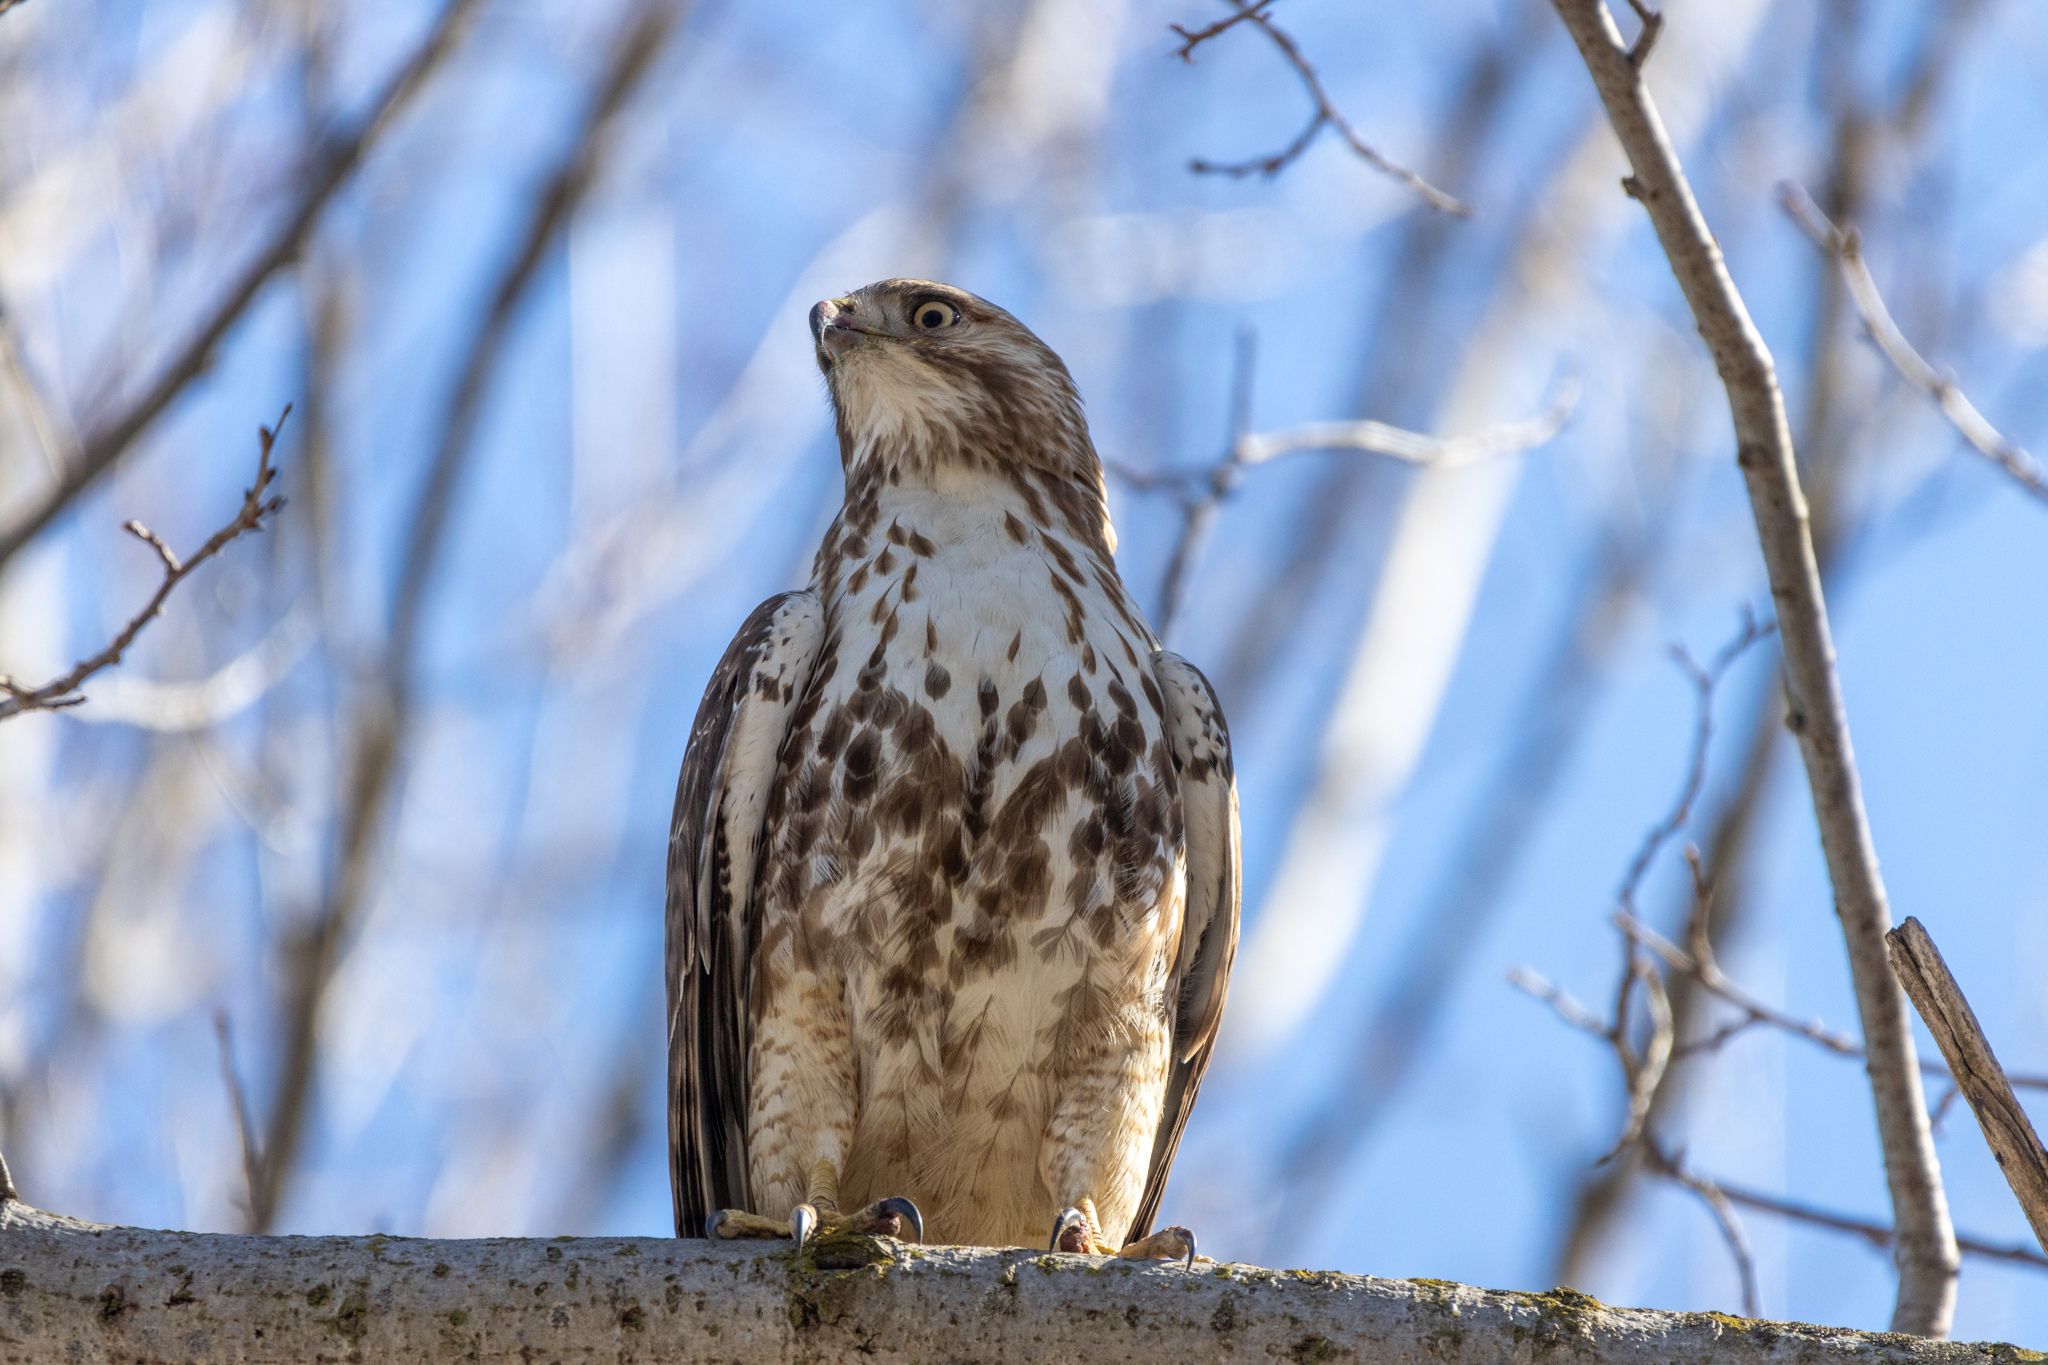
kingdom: Animalia
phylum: Chordata
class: Aves
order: Accipitriformes
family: Accipitridae
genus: Buteo
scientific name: Buteo jamaicensis
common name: Red-tailed hawk
